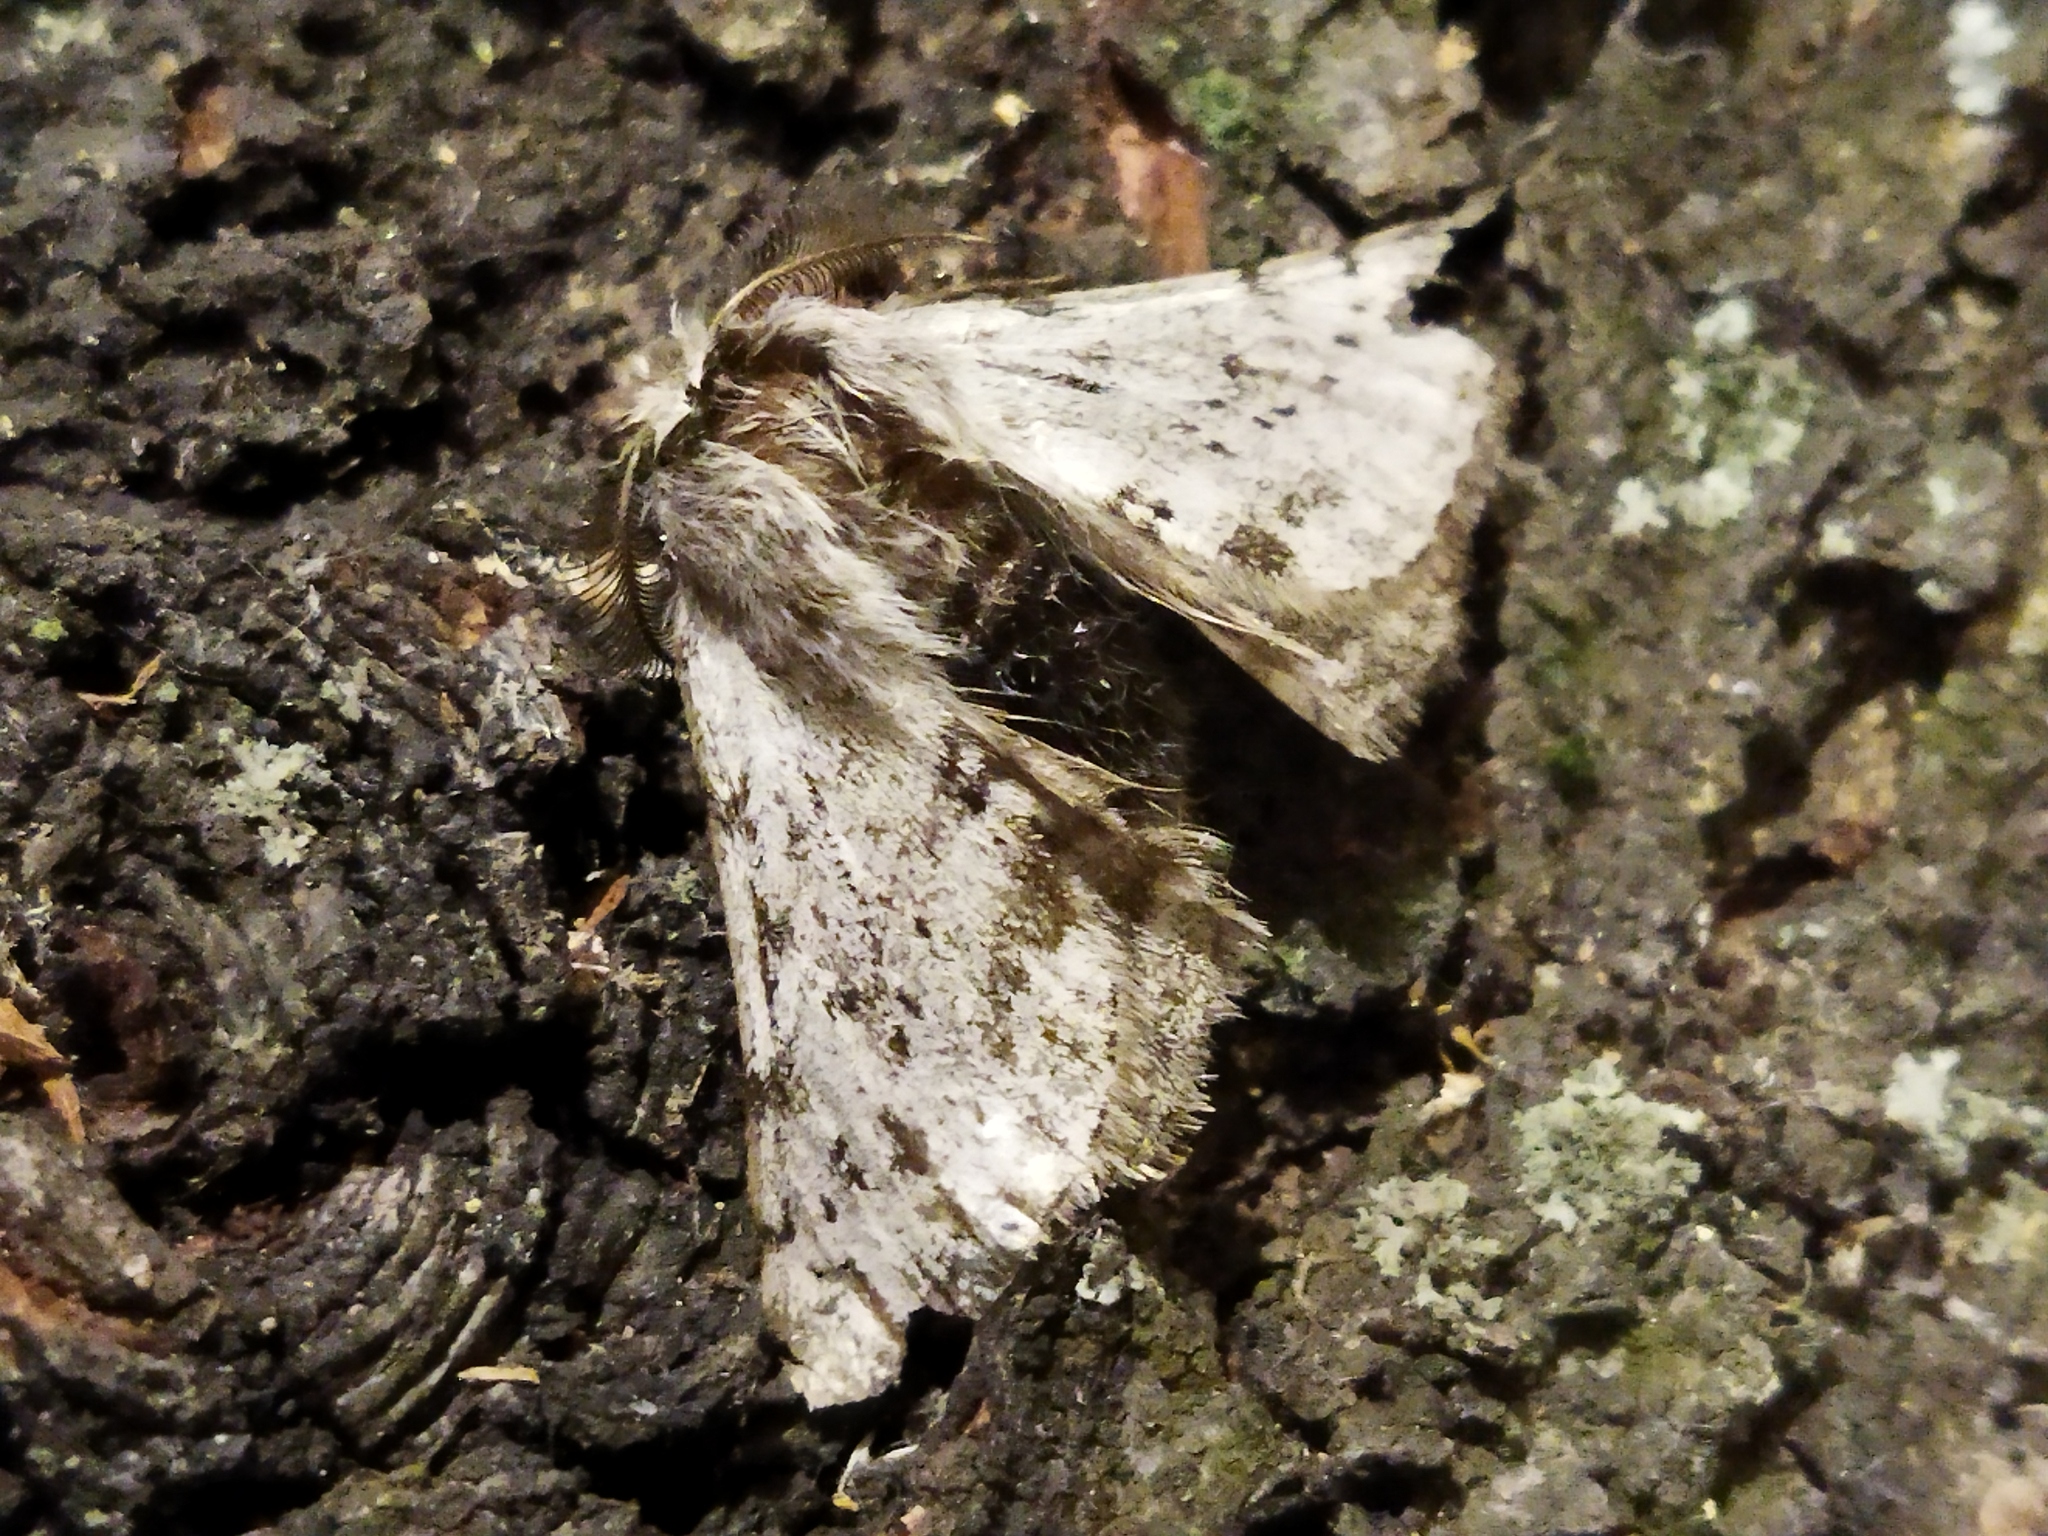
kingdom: Animalia
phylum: Arthropoda
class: Insecta
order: Lepidoptera
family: Geometridae
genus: Lycia
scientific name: Lycia graecarius
